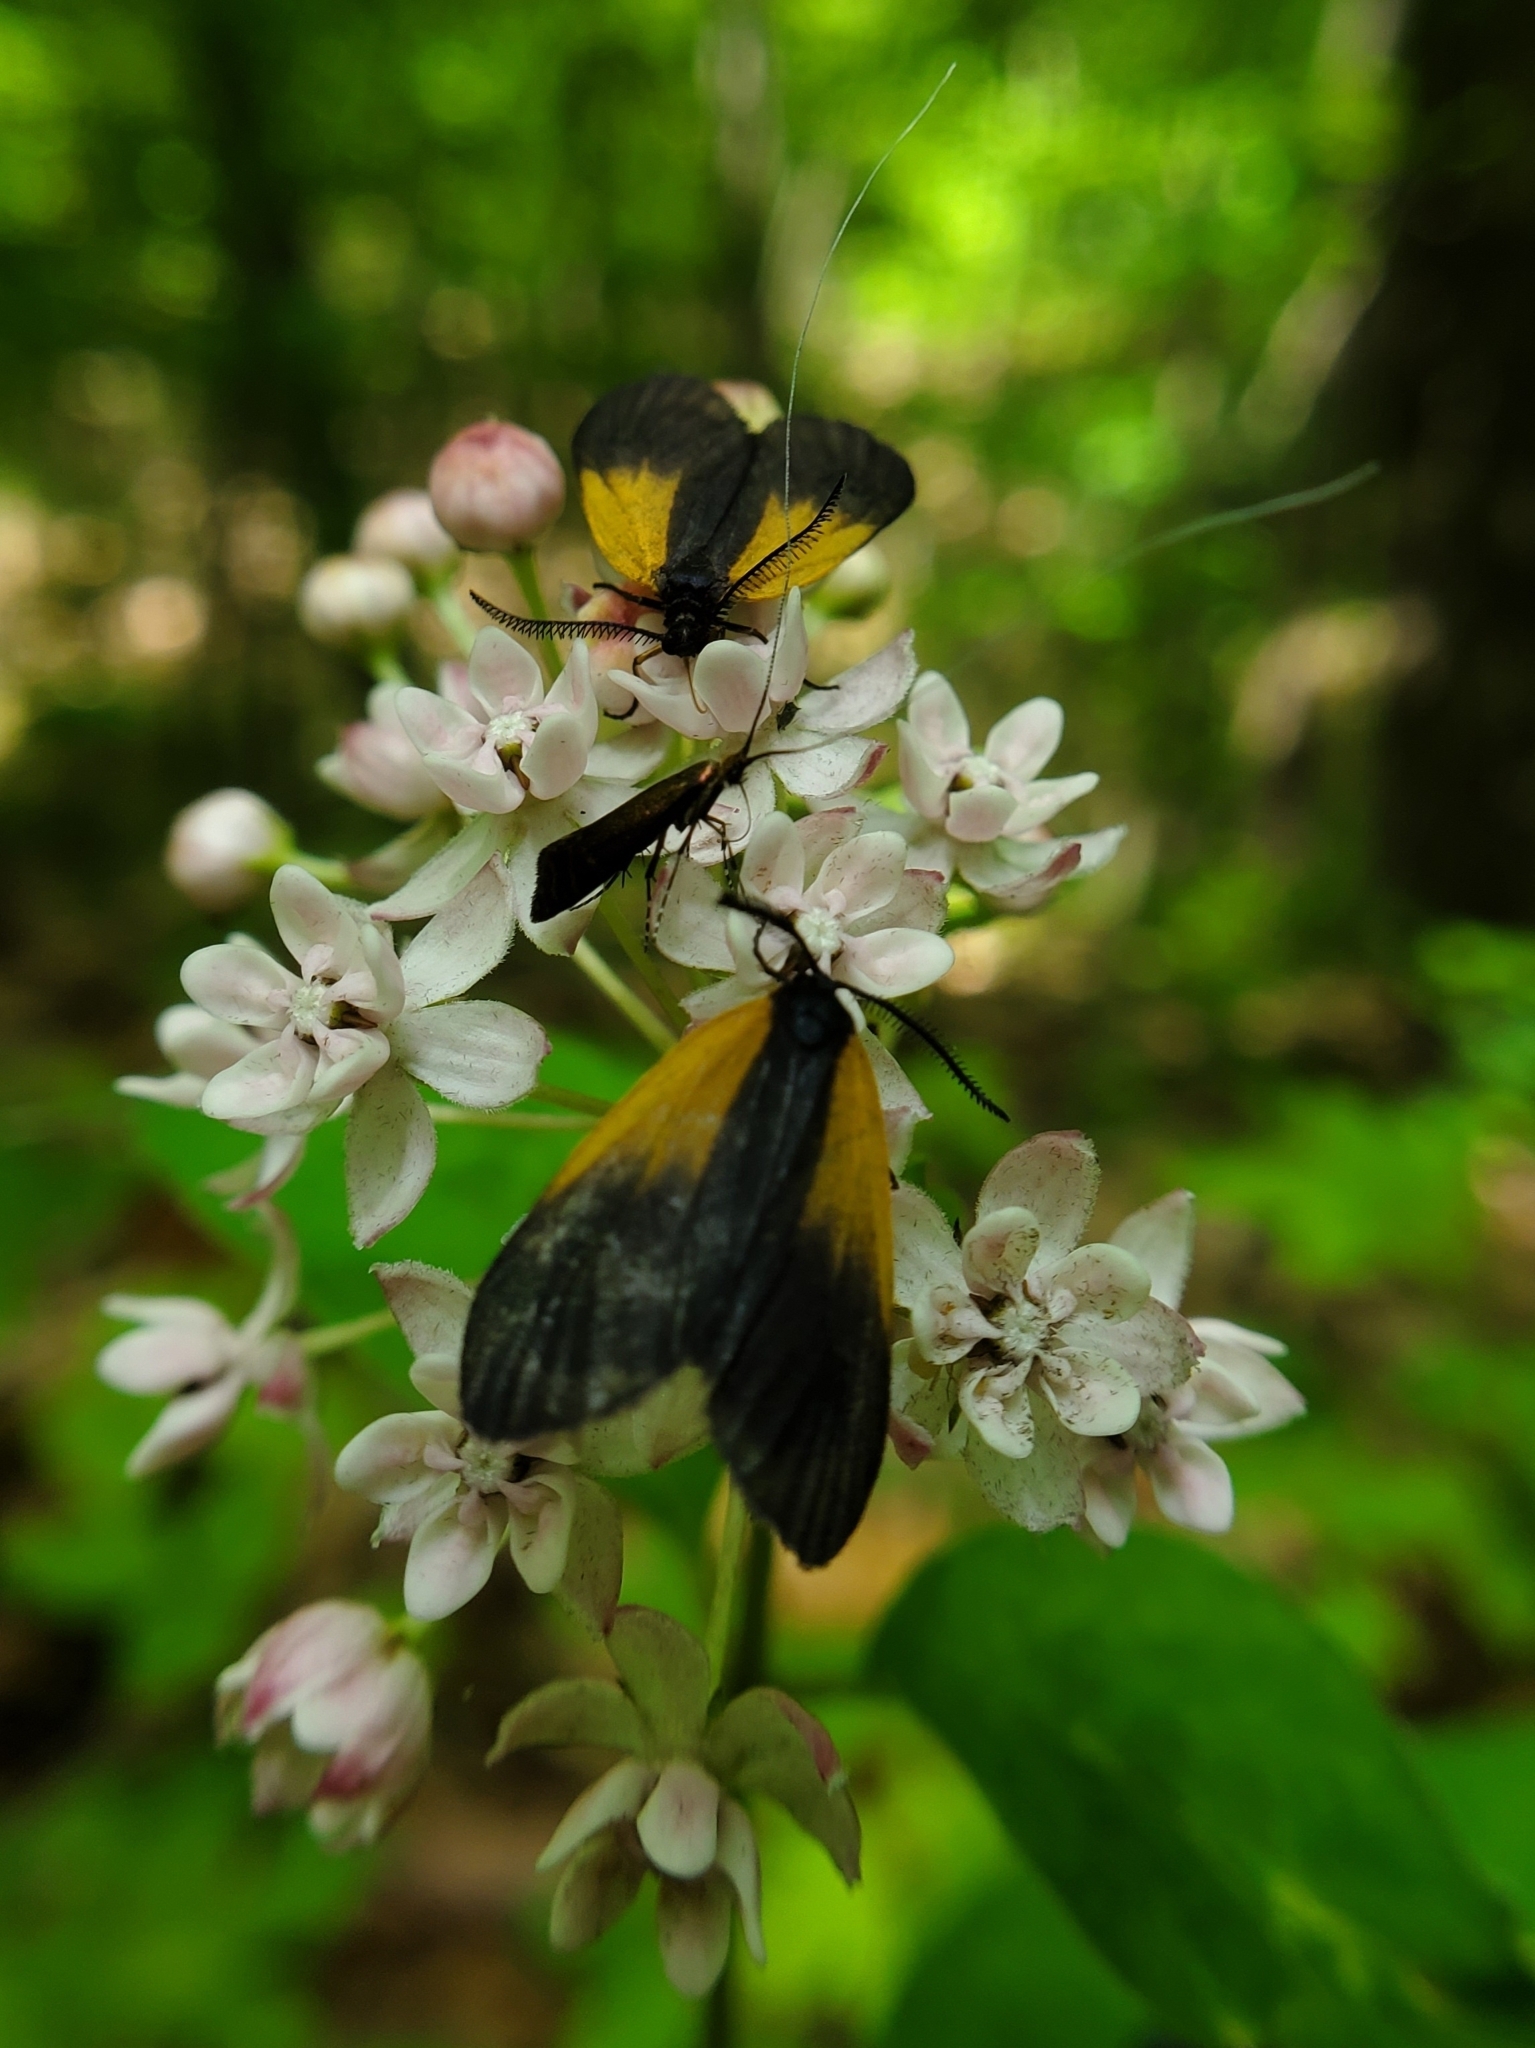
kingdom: Animalia
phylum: Arthropoda
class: Insecta
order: Lepidoptera
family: Zygaenidae
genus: Malthaca
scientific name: Malthaca dimidiata
